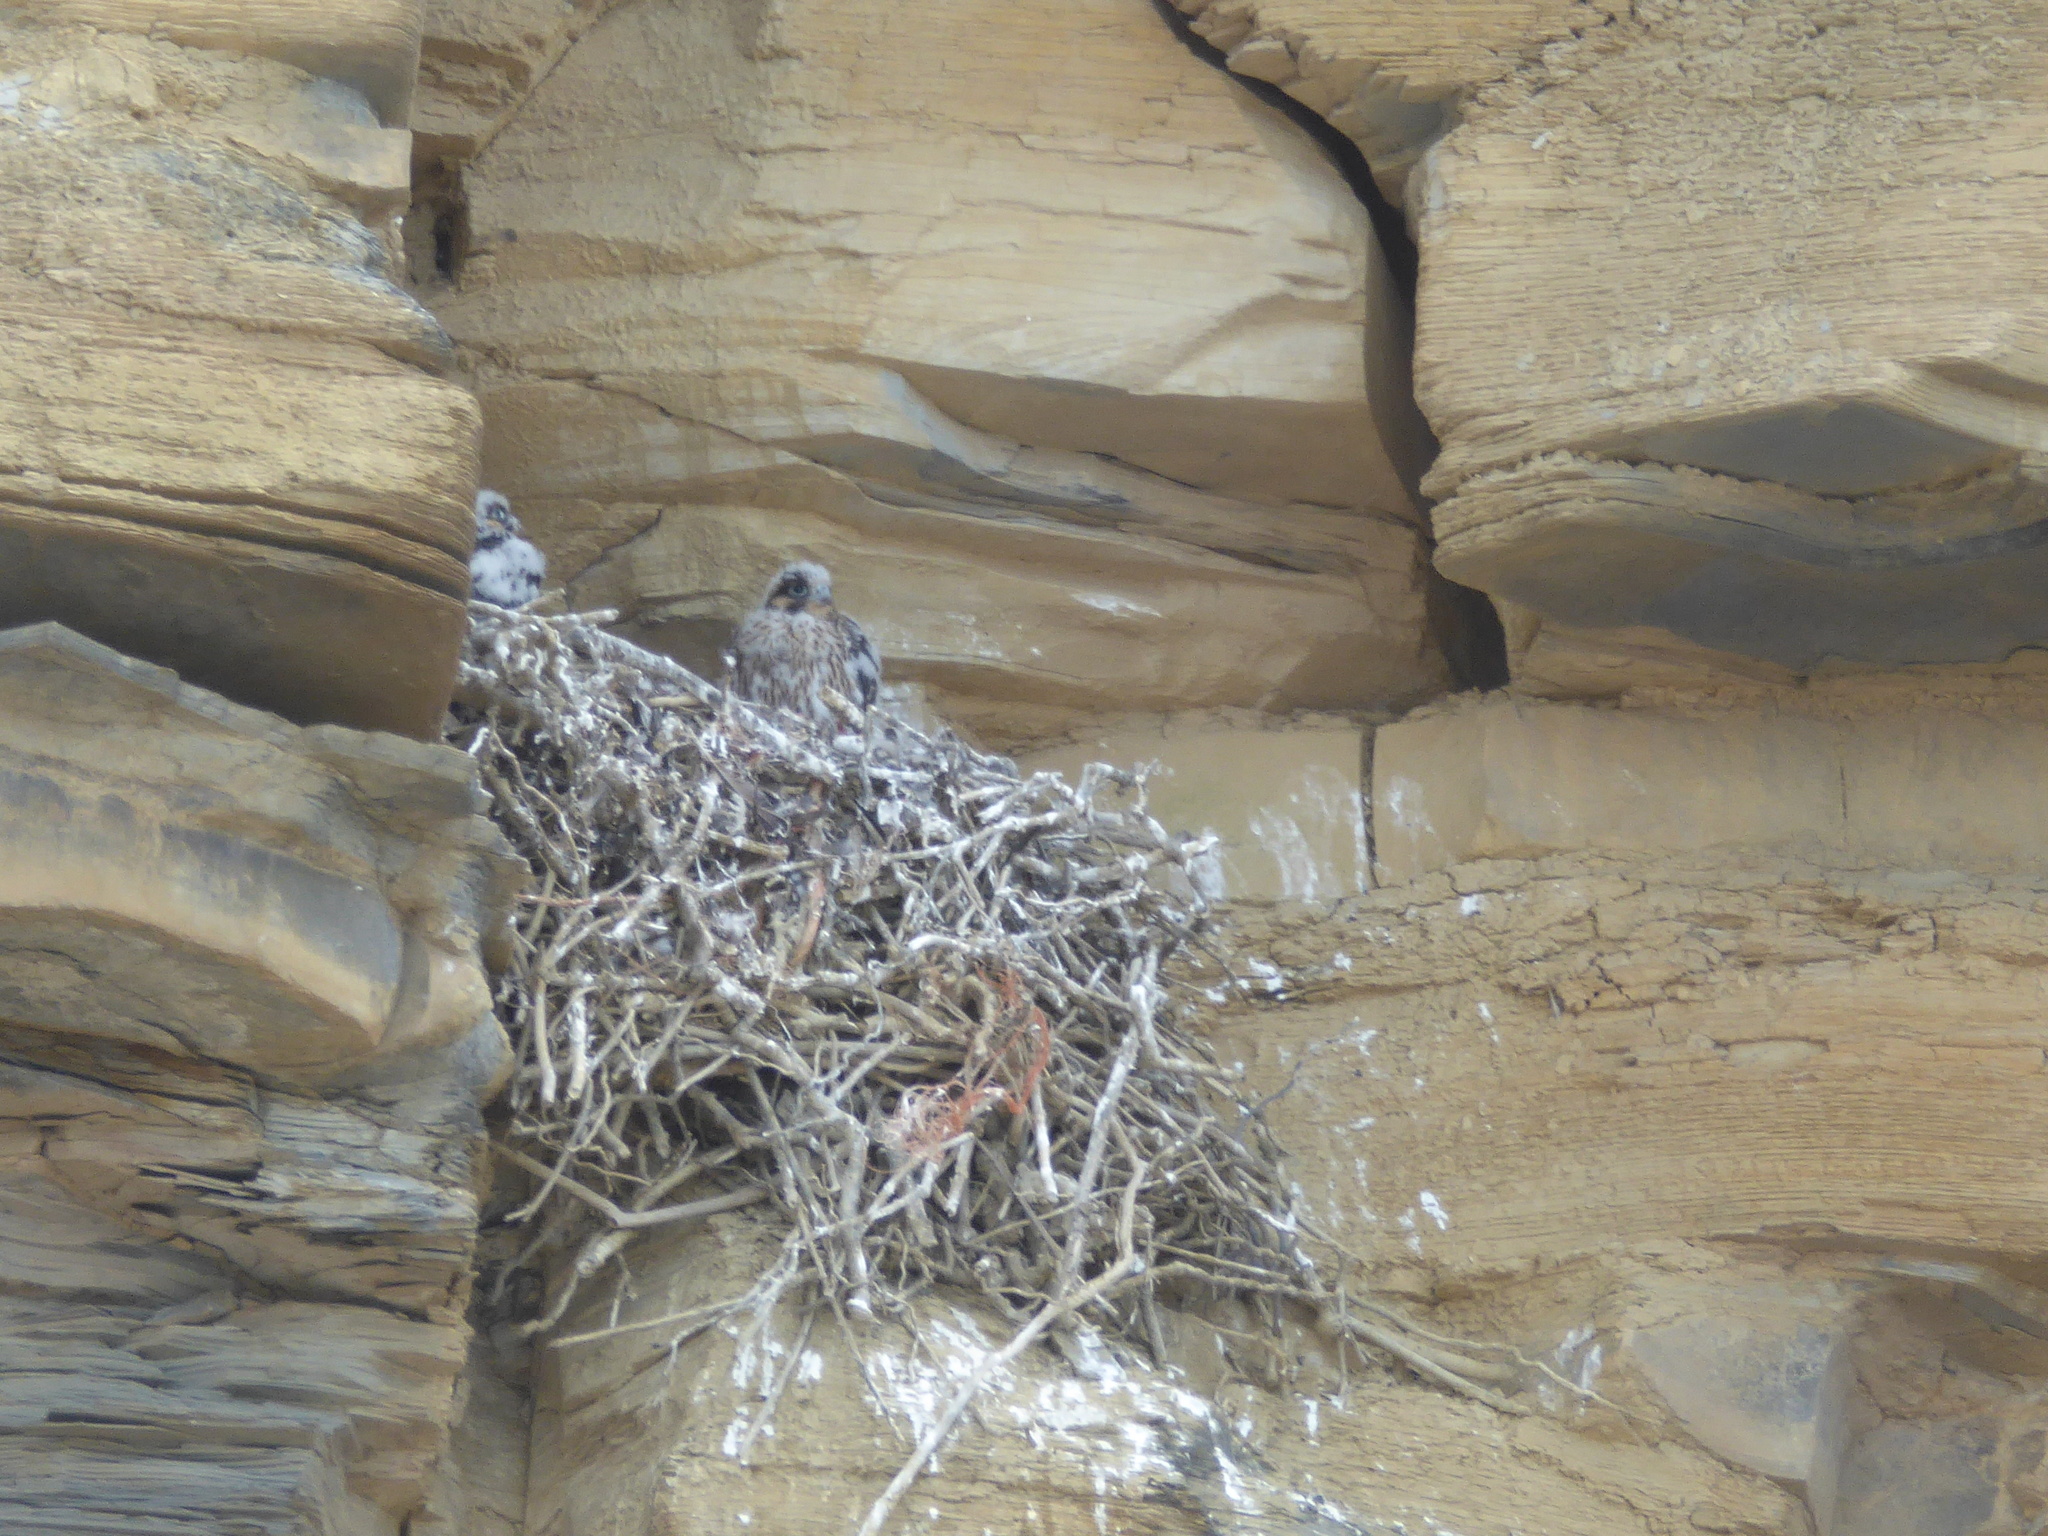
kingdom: Animalia
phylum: Chordata
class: Aves
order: Falconiformes
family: Falconidae
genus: Falco
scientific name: Falco peregrinus
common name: Peregrine falcon
